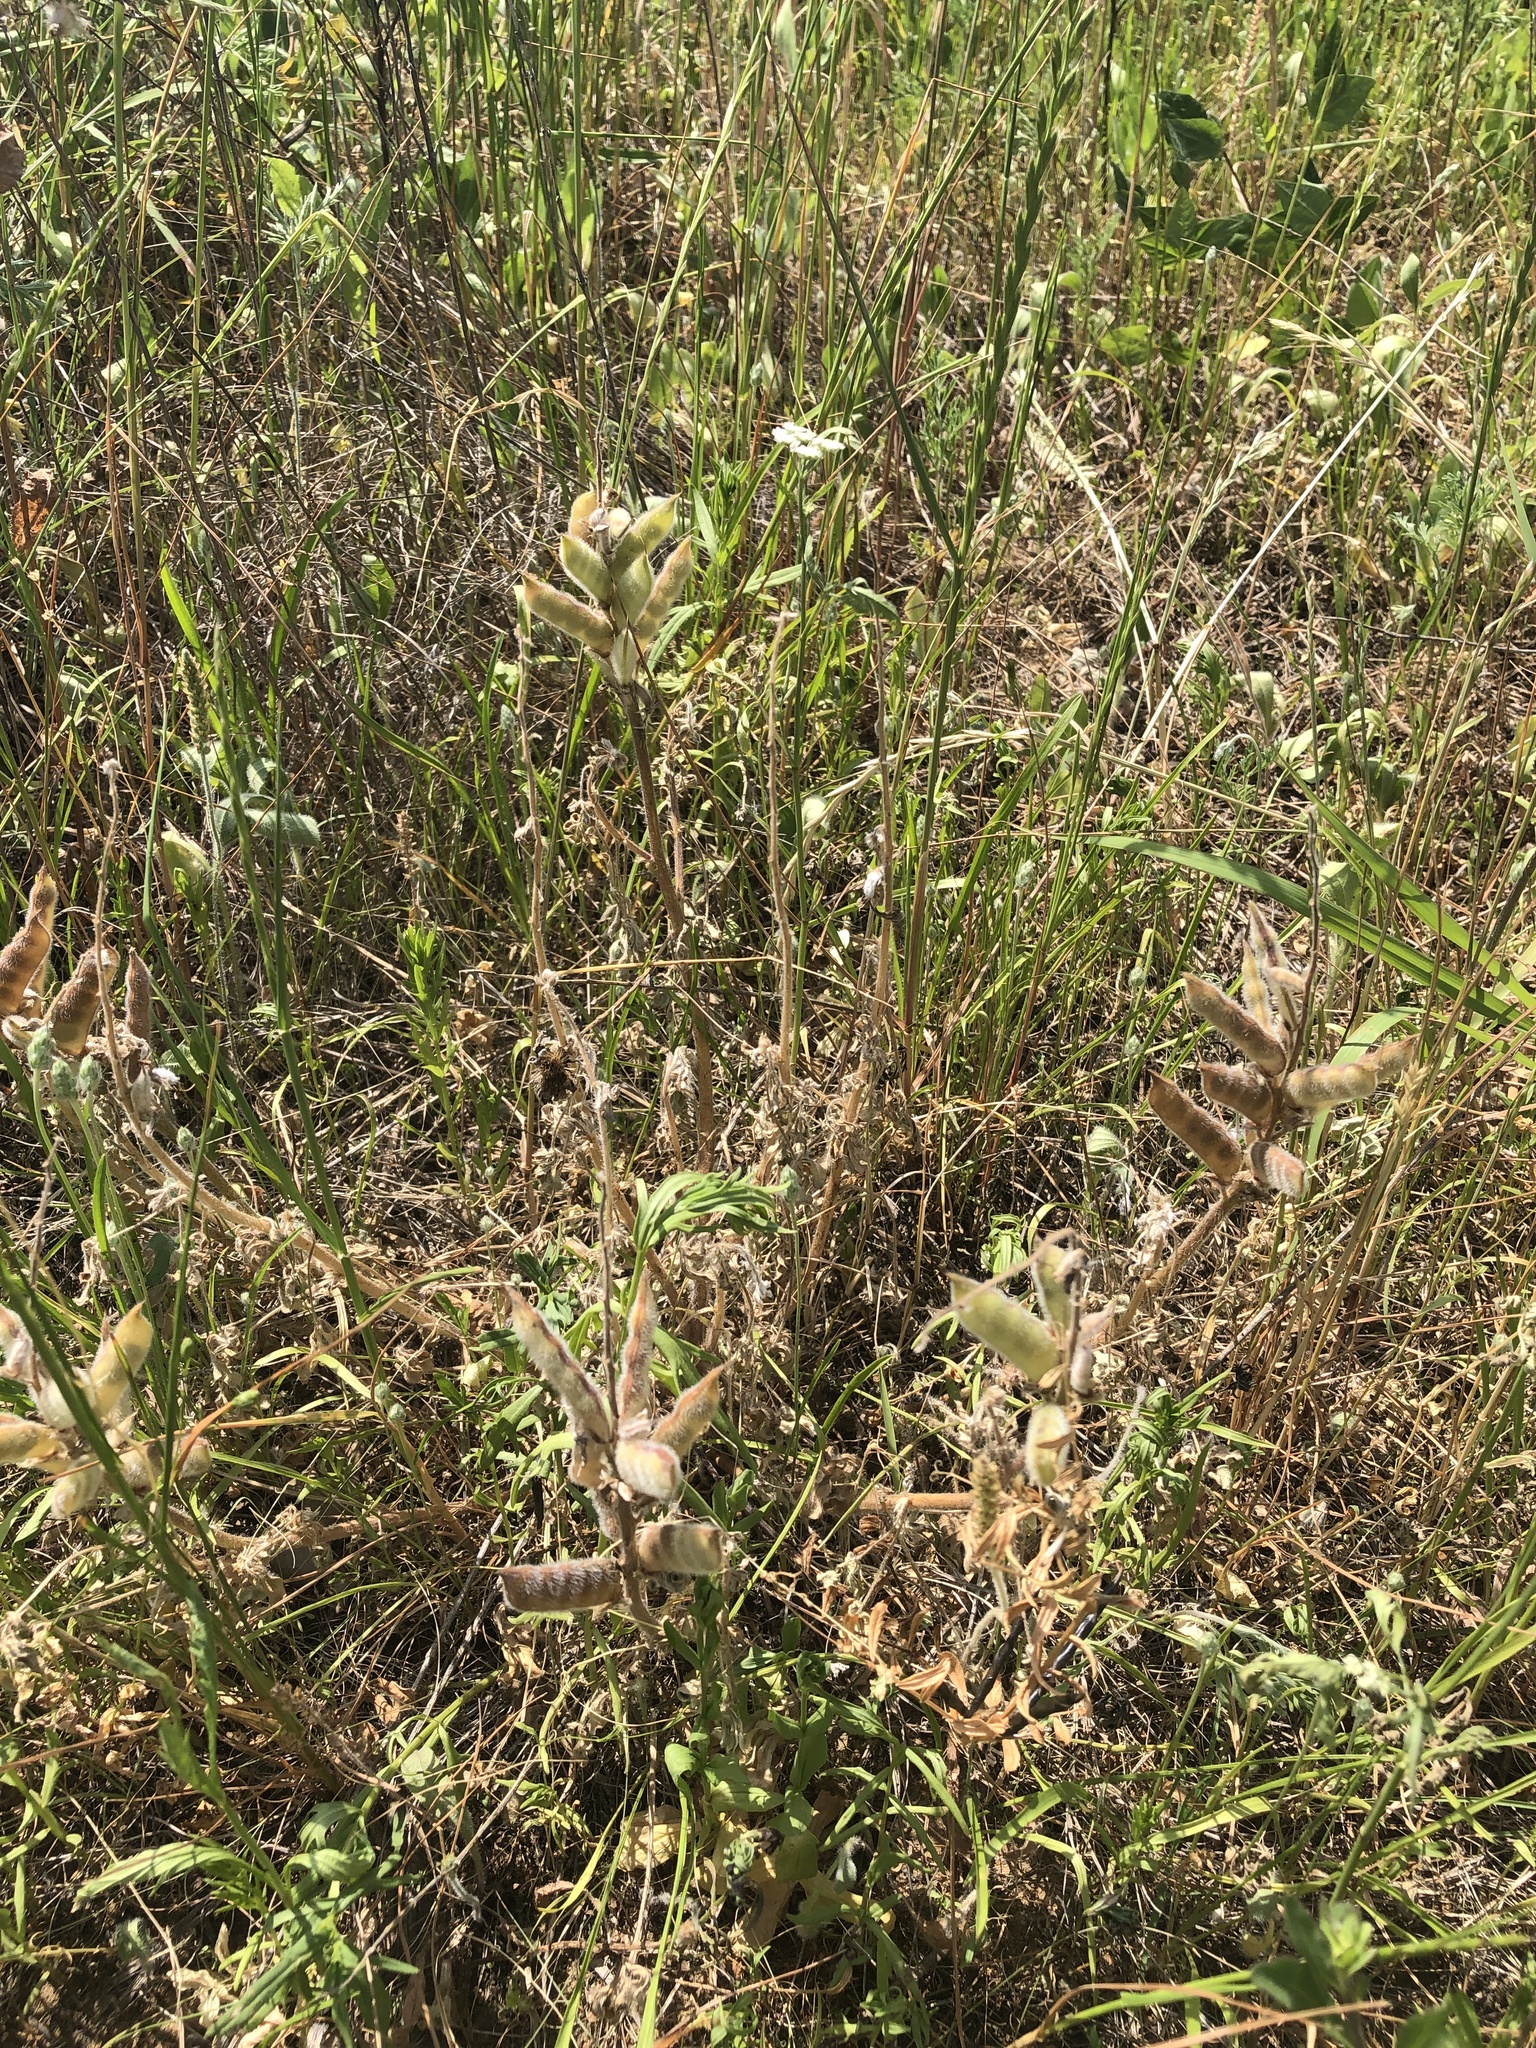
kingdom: Plantae
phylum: Tracheophyta
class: Magnoliopsida
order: Fabales
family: Fabaceae
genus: Lupinus
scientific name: Lupinus subcarnosus
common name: Texas bluebonnet
